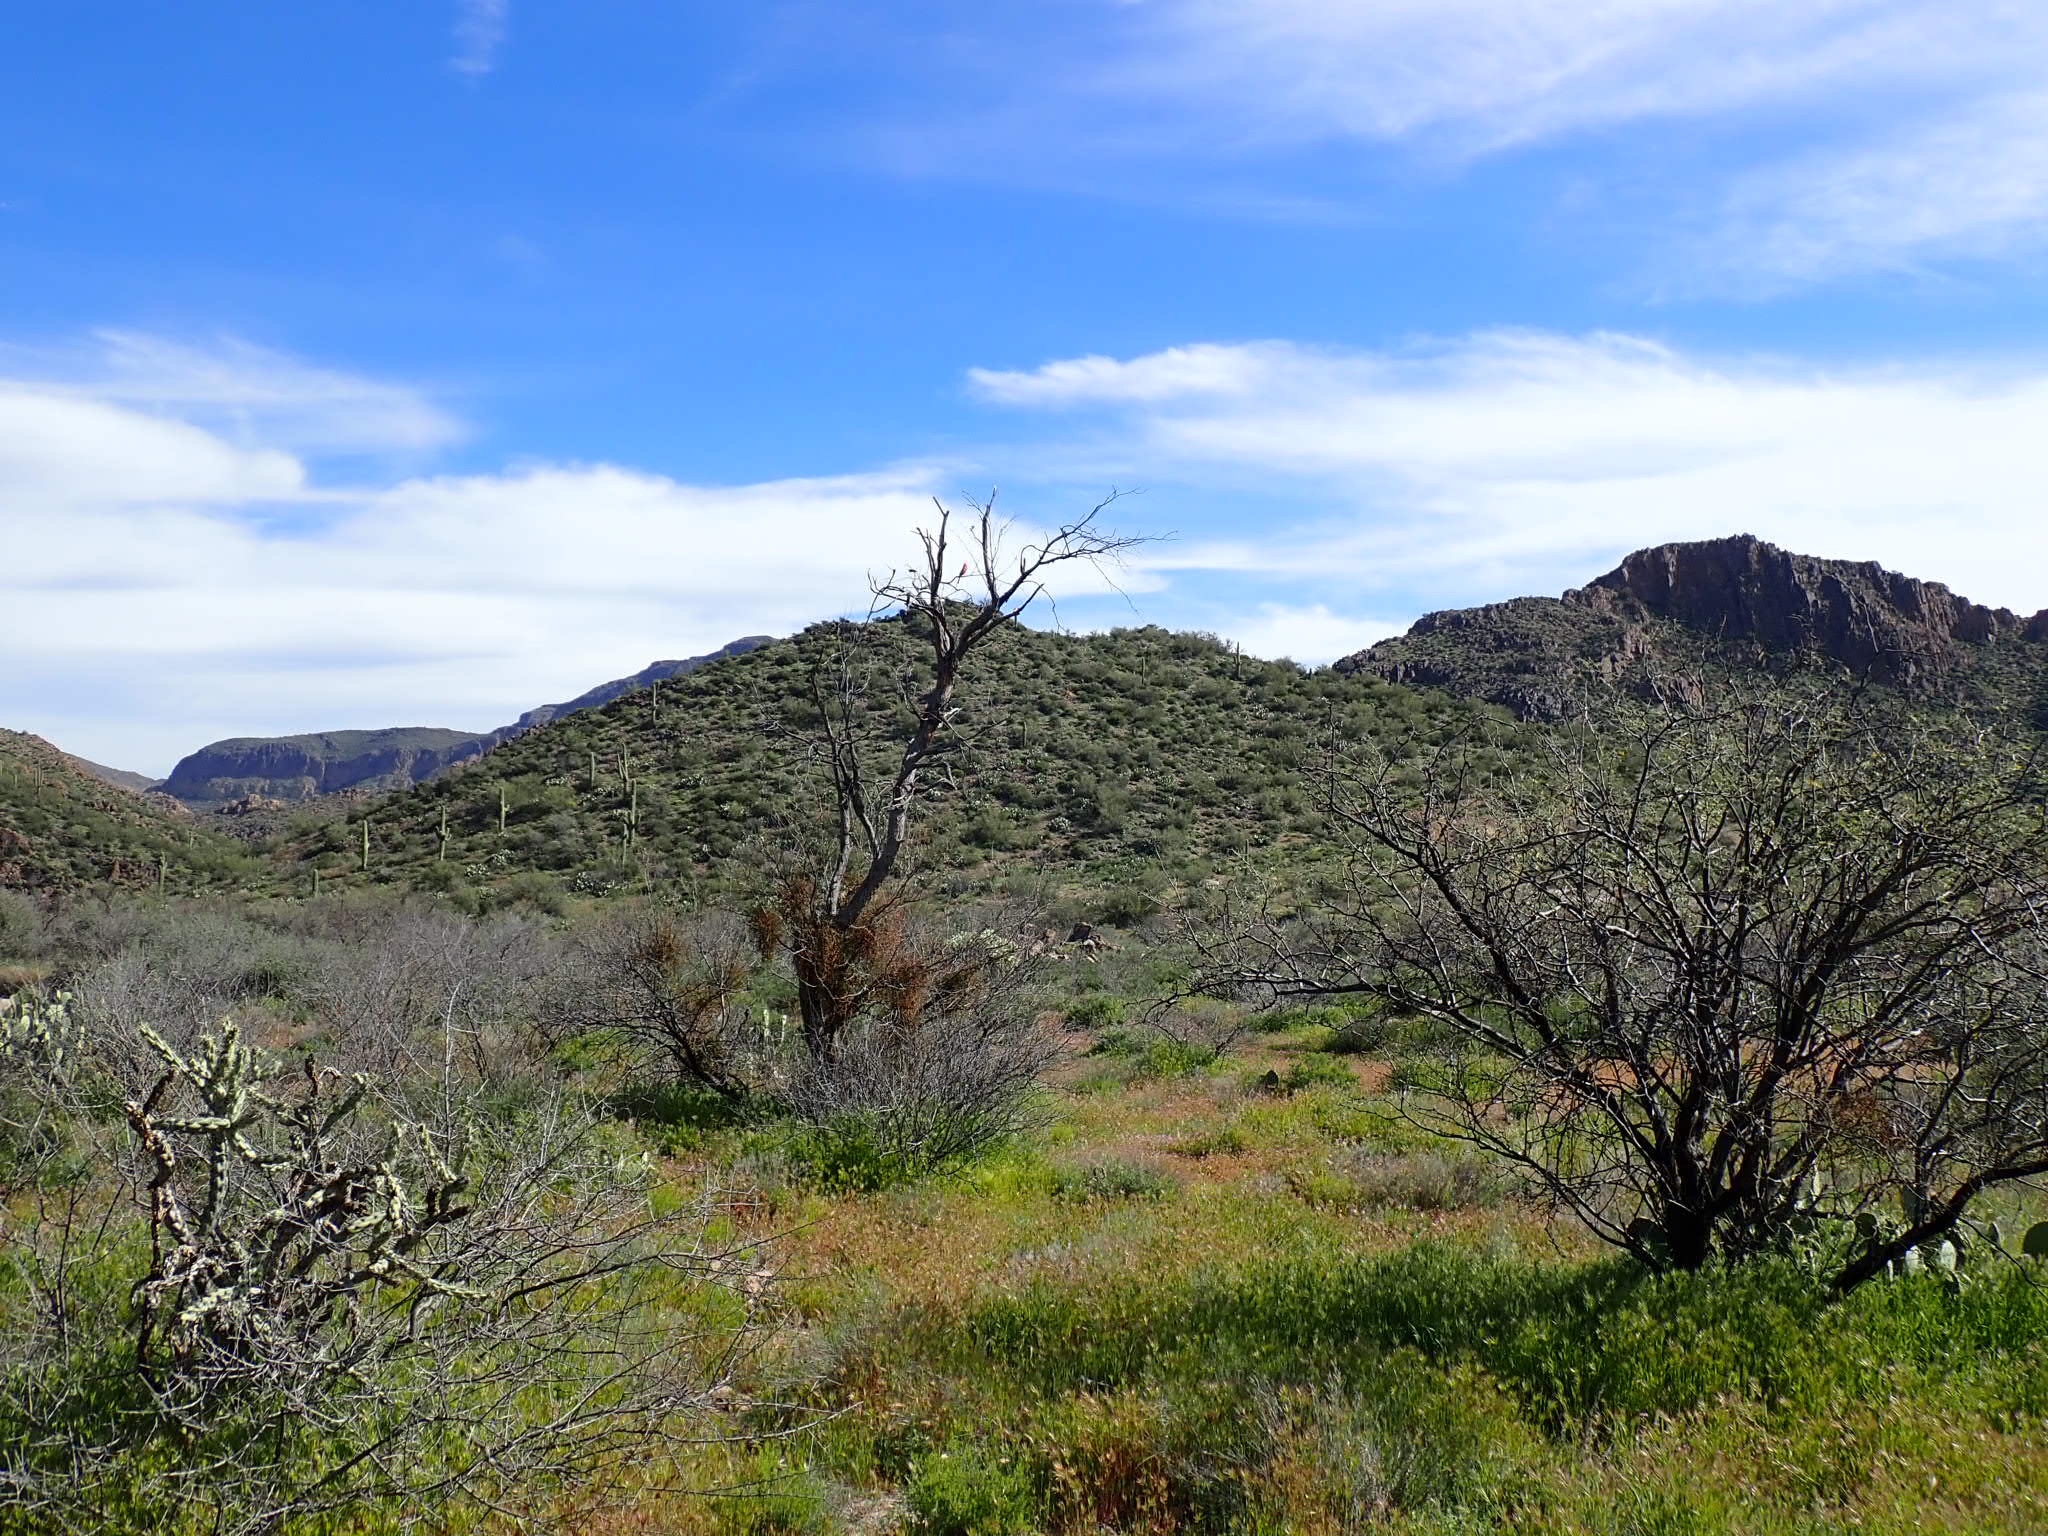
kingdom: Animalia
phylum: Chordata
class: Aves
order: Passeriformes
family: Cardinalidae
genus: Cardinalis
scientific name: Cardinalis cardinalis
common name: Northern cardinal
